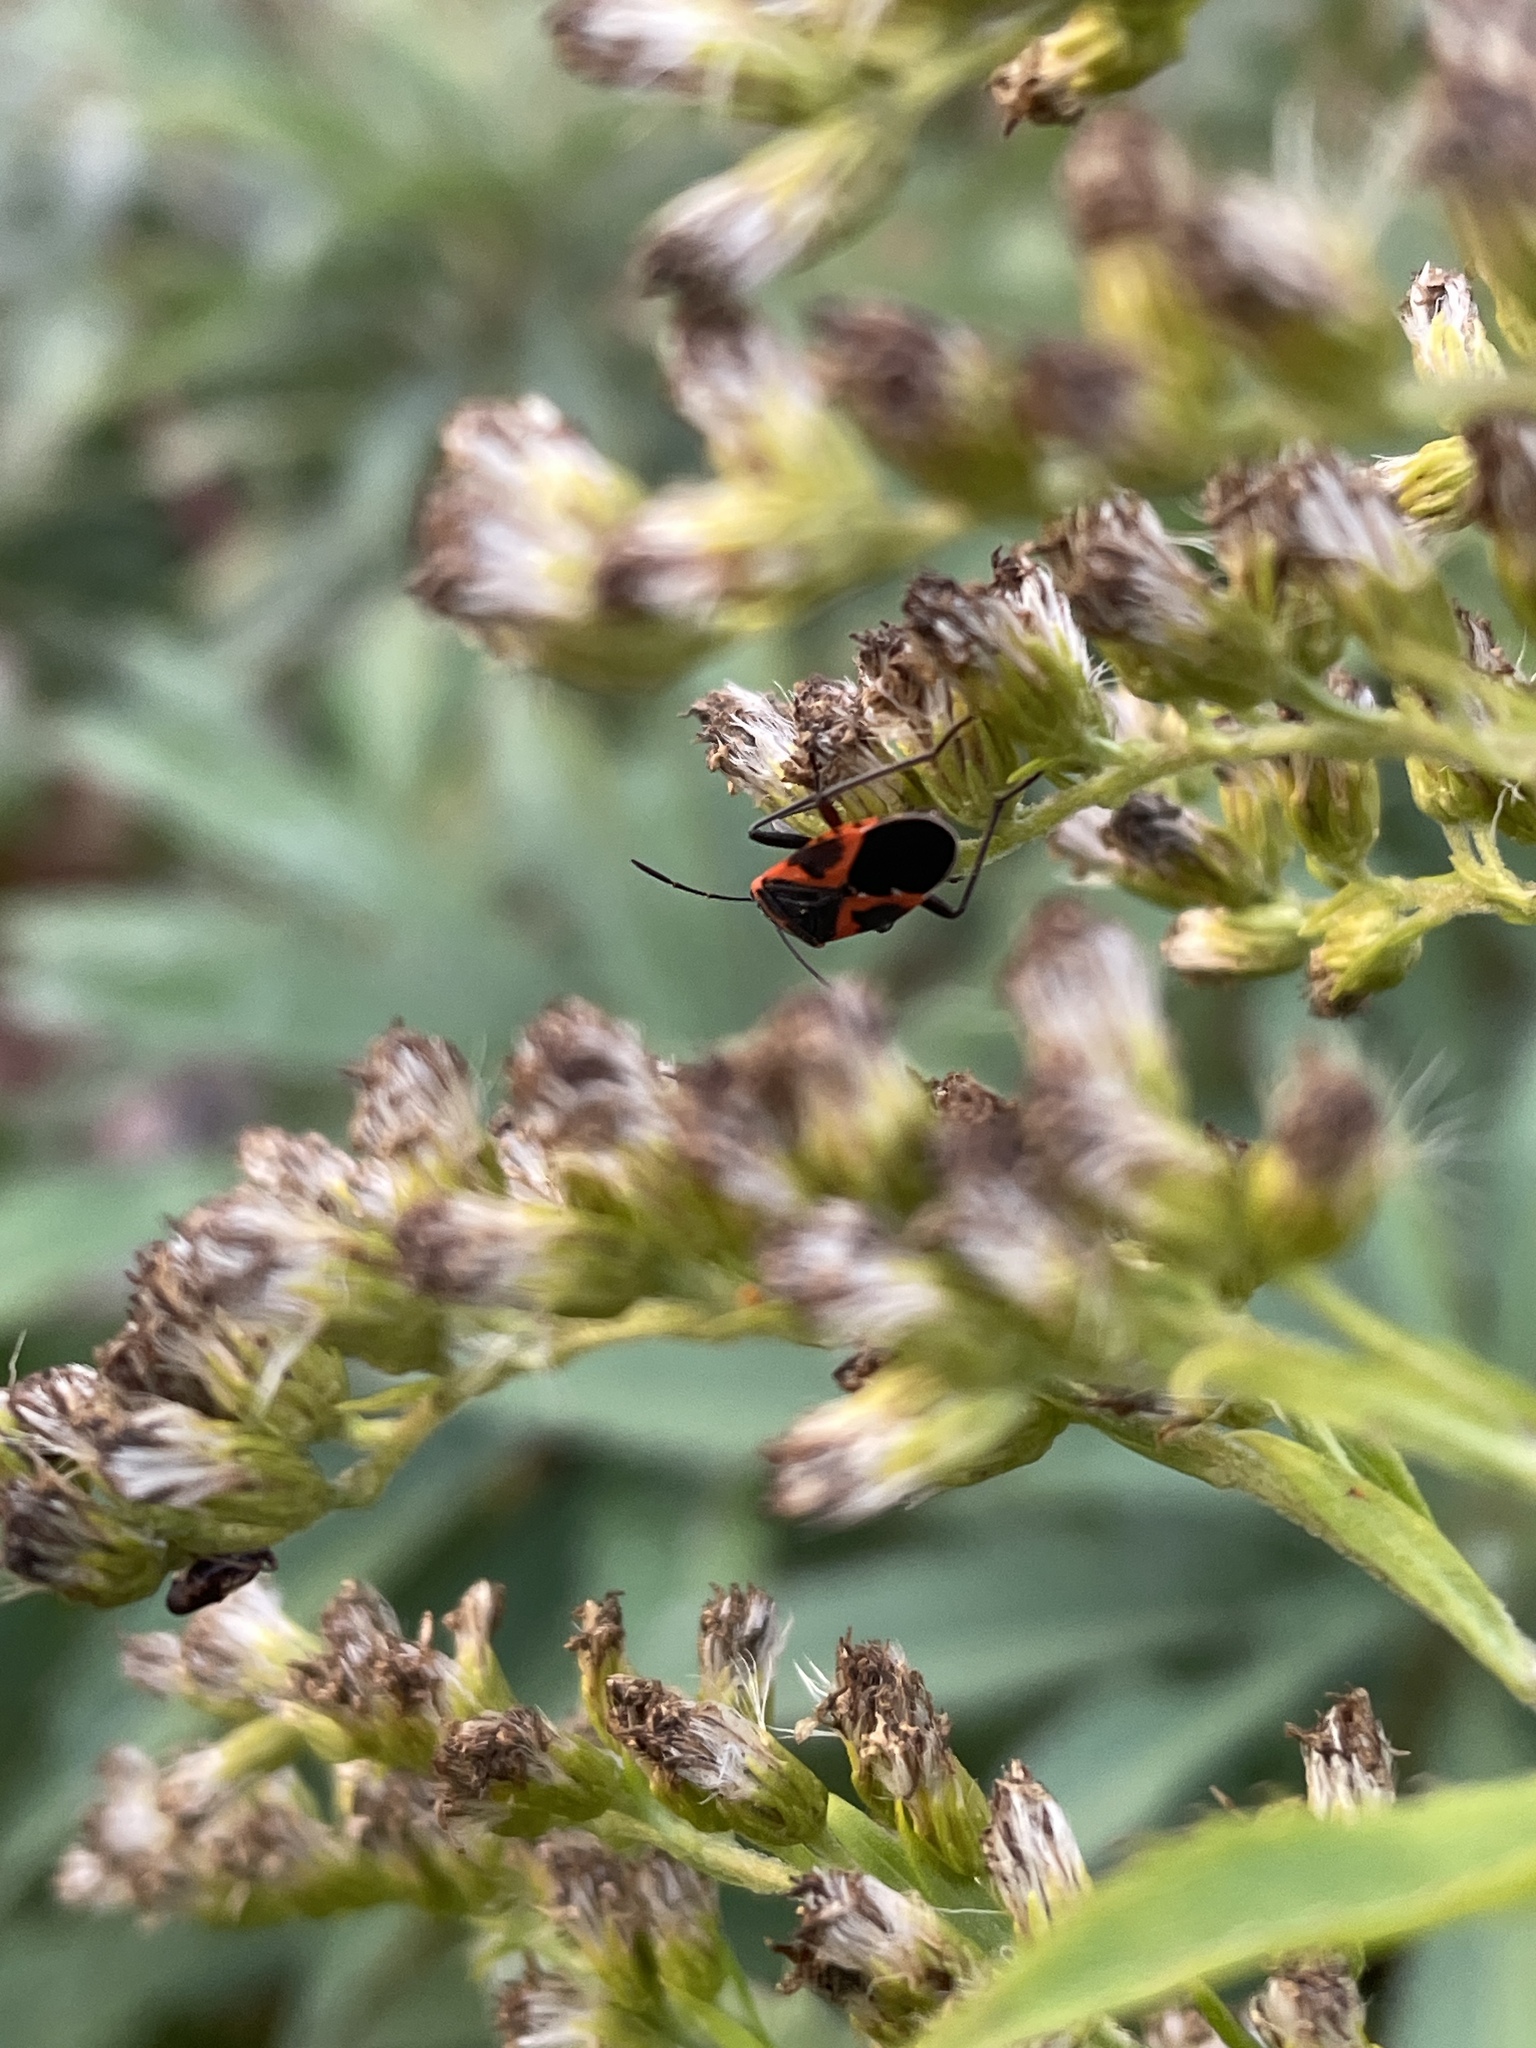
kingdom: Animalia
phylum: Arthropoda
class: Insecta
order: Hemiptera
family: Lygaeidae
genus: Lygaeus
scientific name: Lygaeus kalmii
